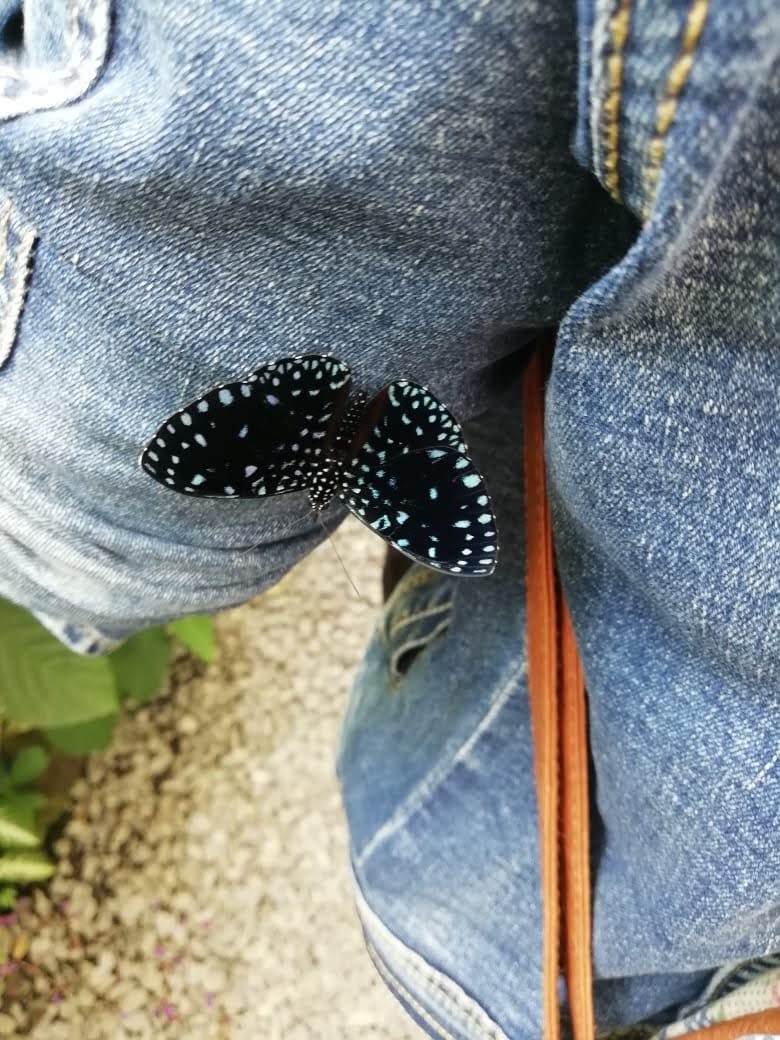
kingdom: Animalia
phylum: Arthropoda
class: Insecta
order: Lepidoptera
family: Nymphalidae
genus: Hamadryas
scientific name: Hamadryas laodamia
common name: Starry night cracker
